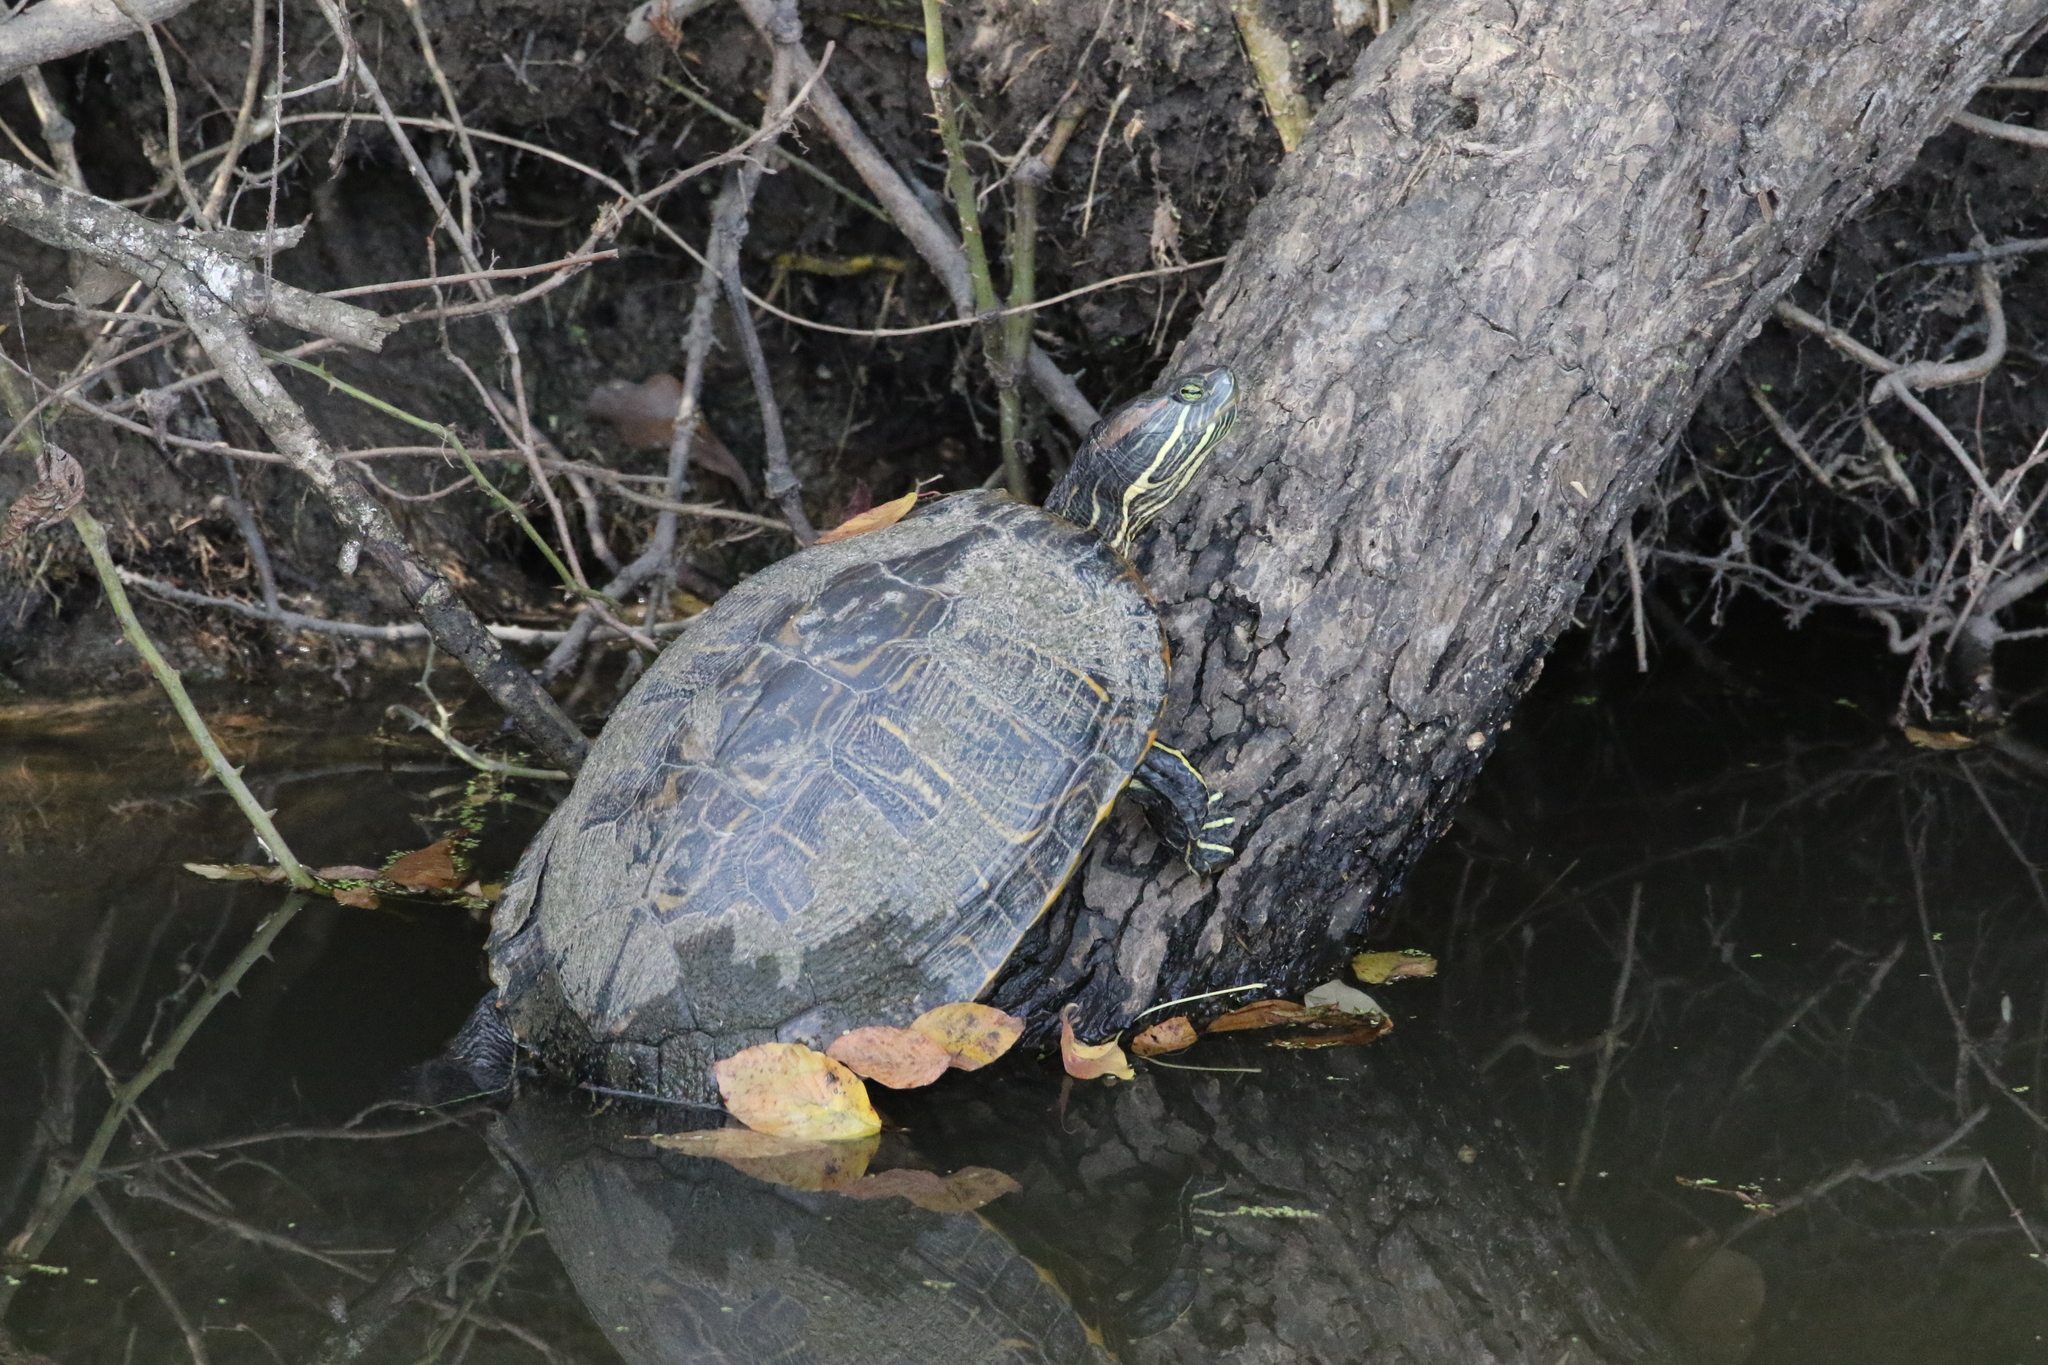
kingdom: Animalia
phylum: Chordata
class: Testudines
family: Emydidae
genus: Trachemys
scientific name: Trachemys scripta
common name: Slider
